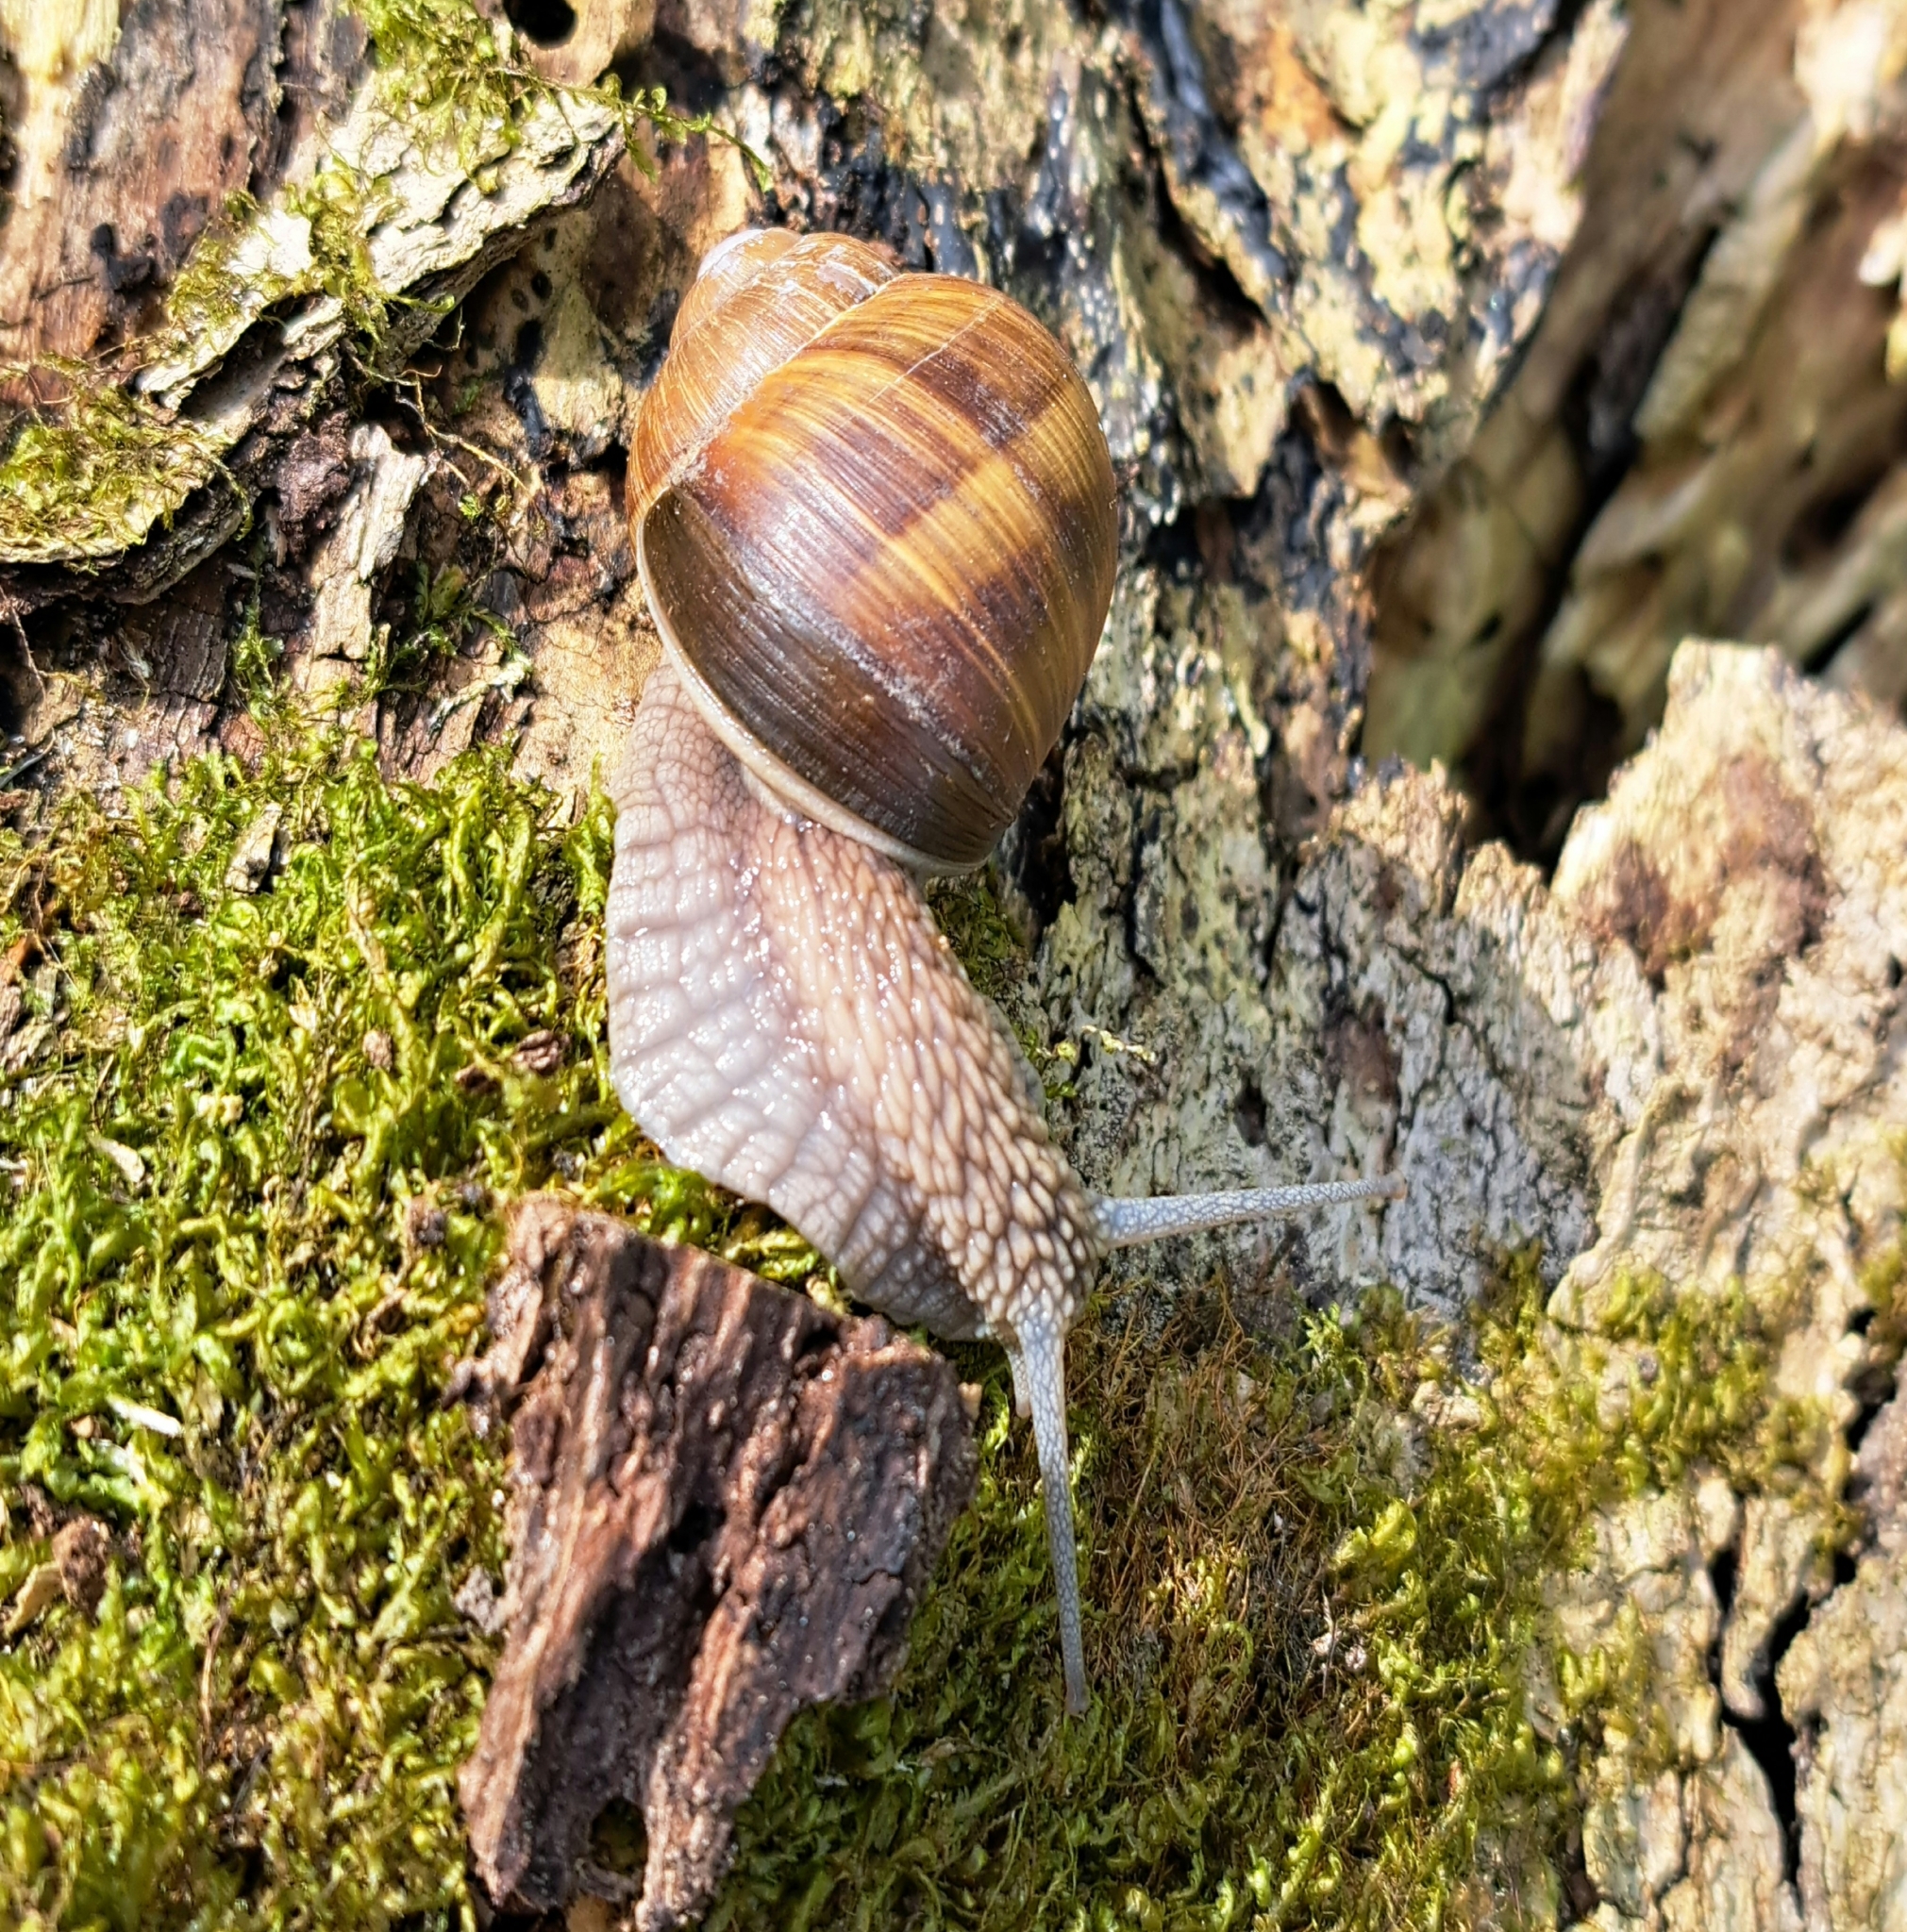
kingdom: Animalia
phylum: Mollusca
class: Gastropoda
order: Stylommatophora
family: Helicidae
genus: Helix
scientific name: Helix pomatia
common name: Roman snail
